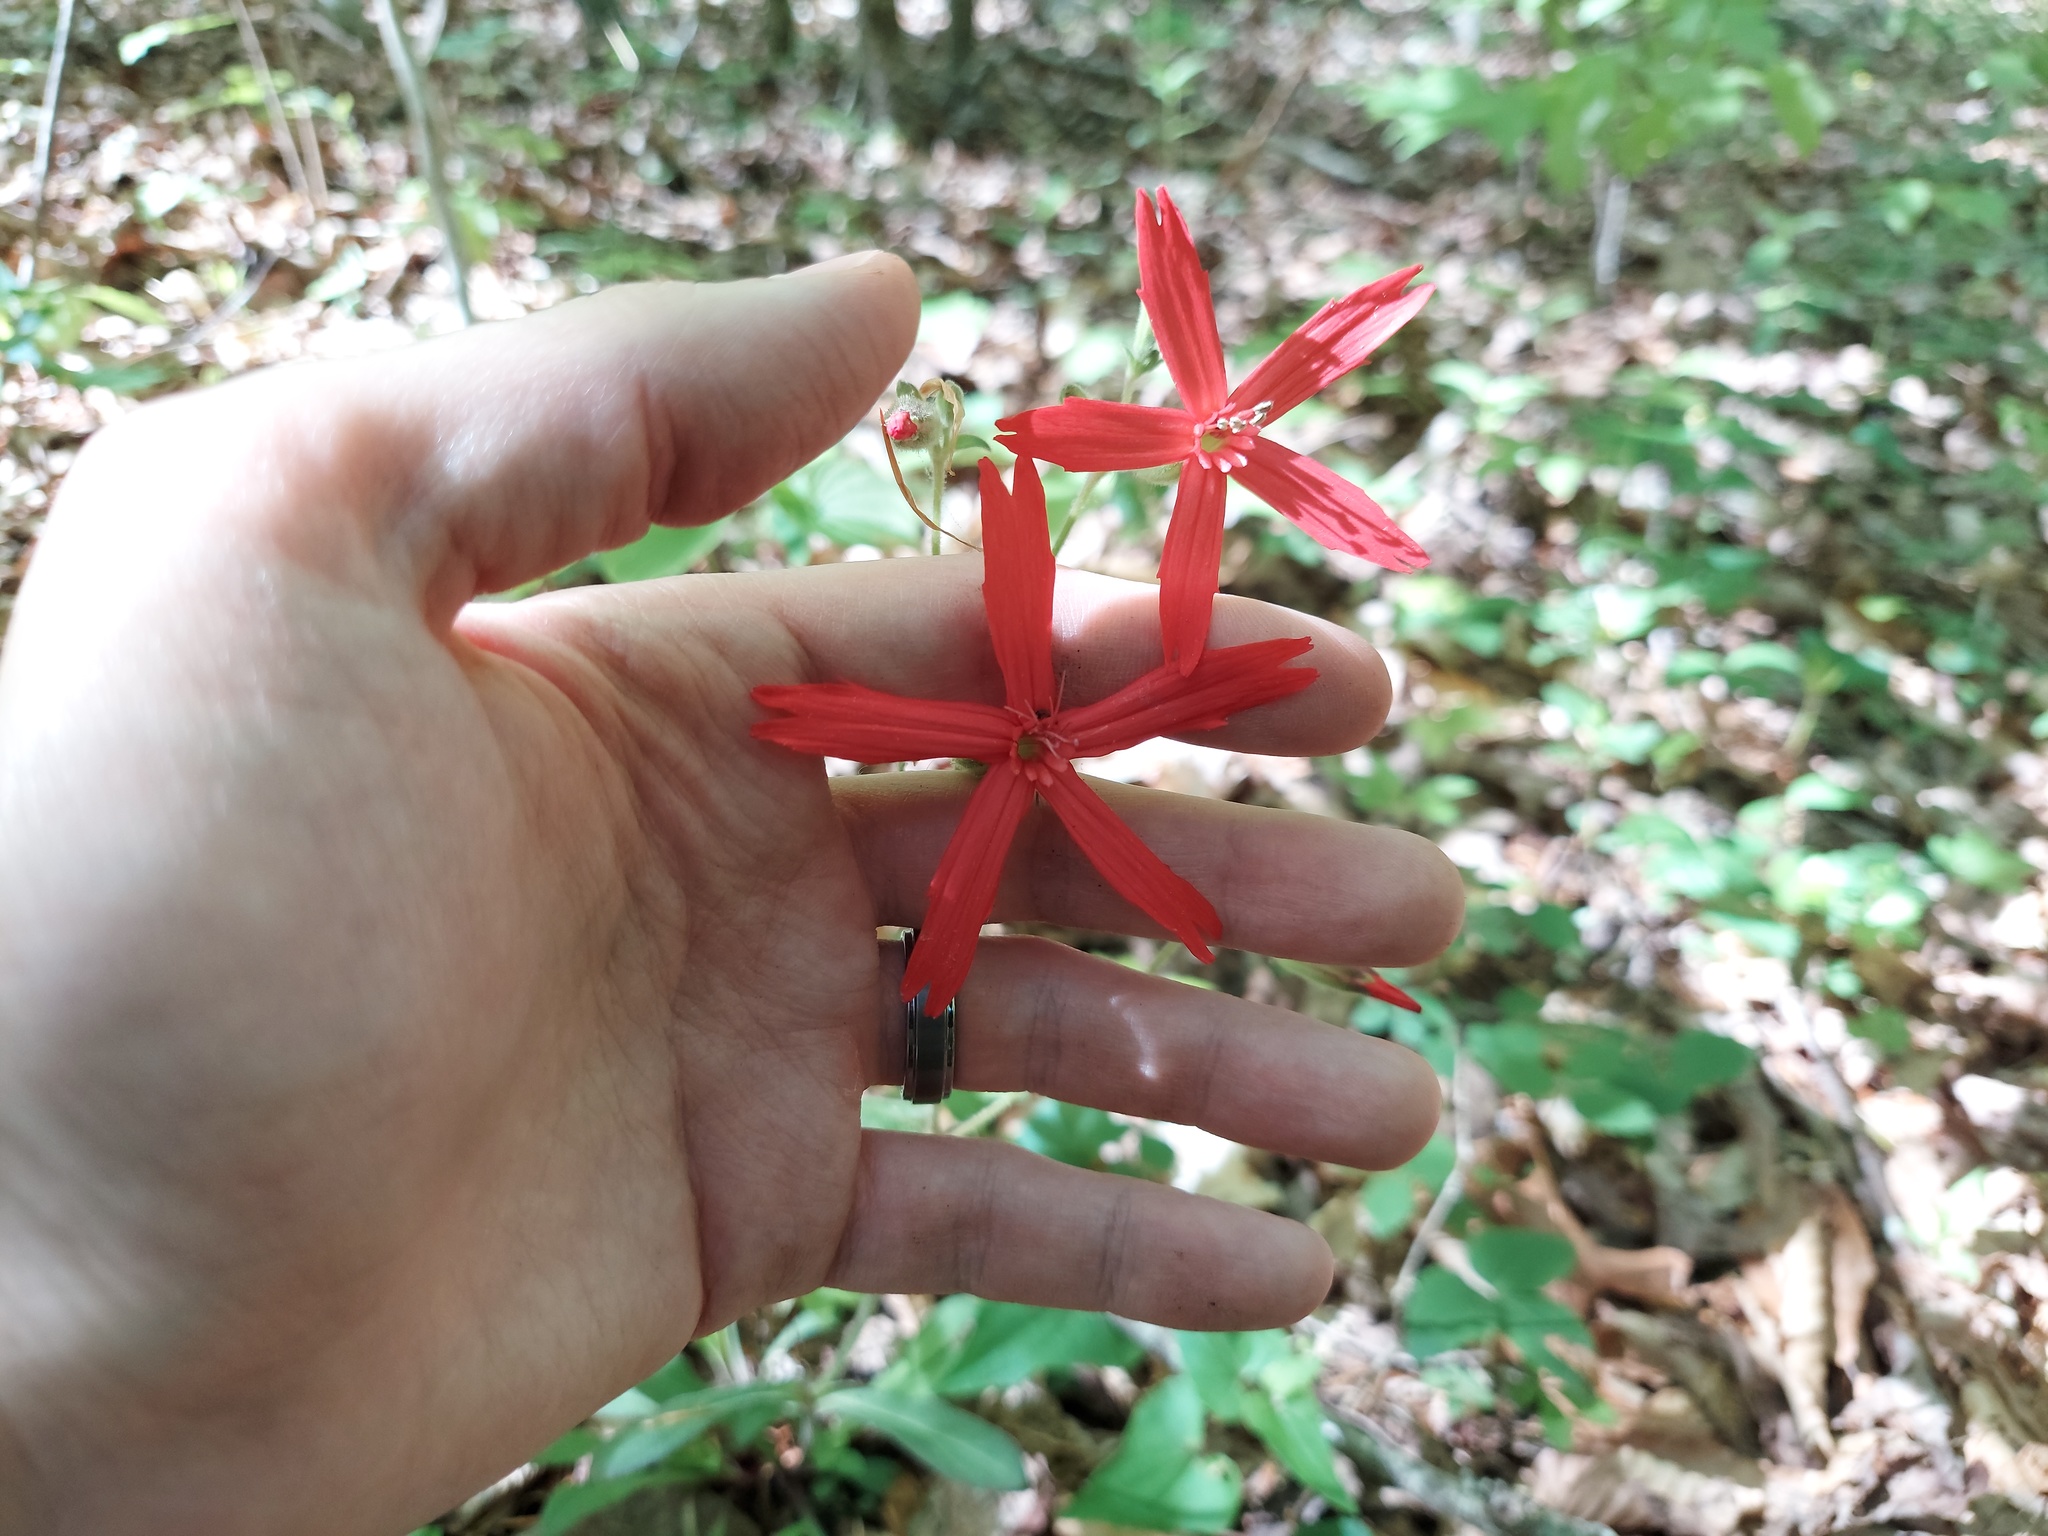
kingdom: Plantae
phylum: Tracheophyta
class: Magnoliopsida
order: Caryophyllales
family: Caryophyllaceae
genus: Silene
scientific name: Silene virginica
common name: Fire-pink
